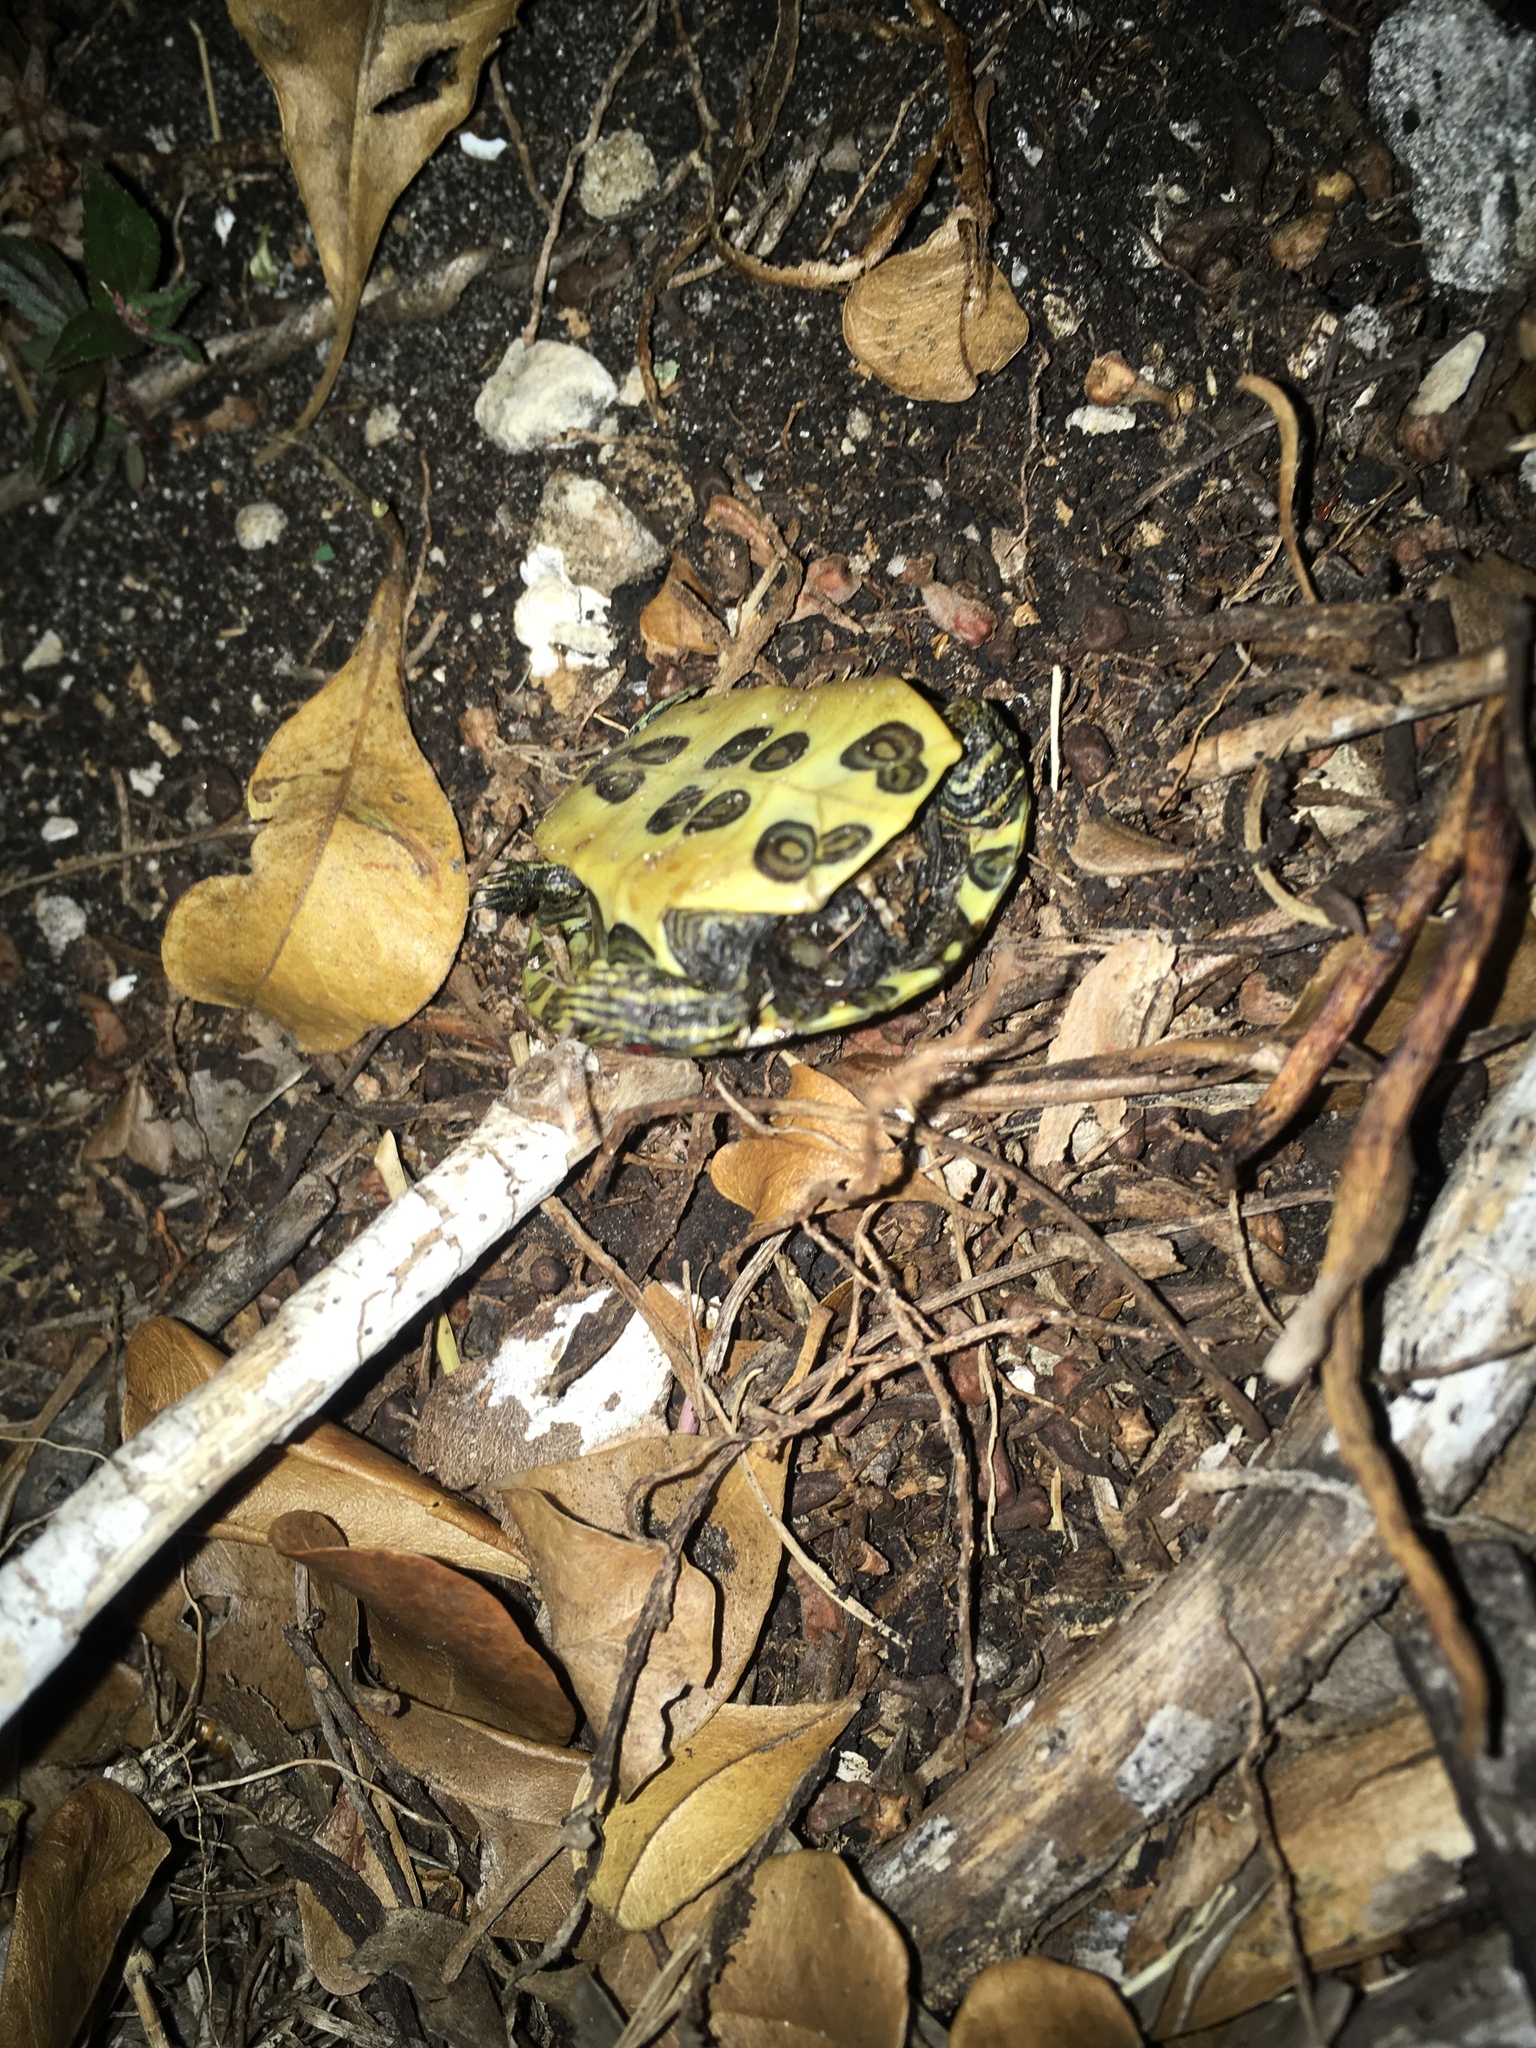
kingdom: Animalia
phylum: Chordata
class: Testudines
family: Emydidae
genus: Trachemys
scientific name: Trachemys scripta
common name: Slider
